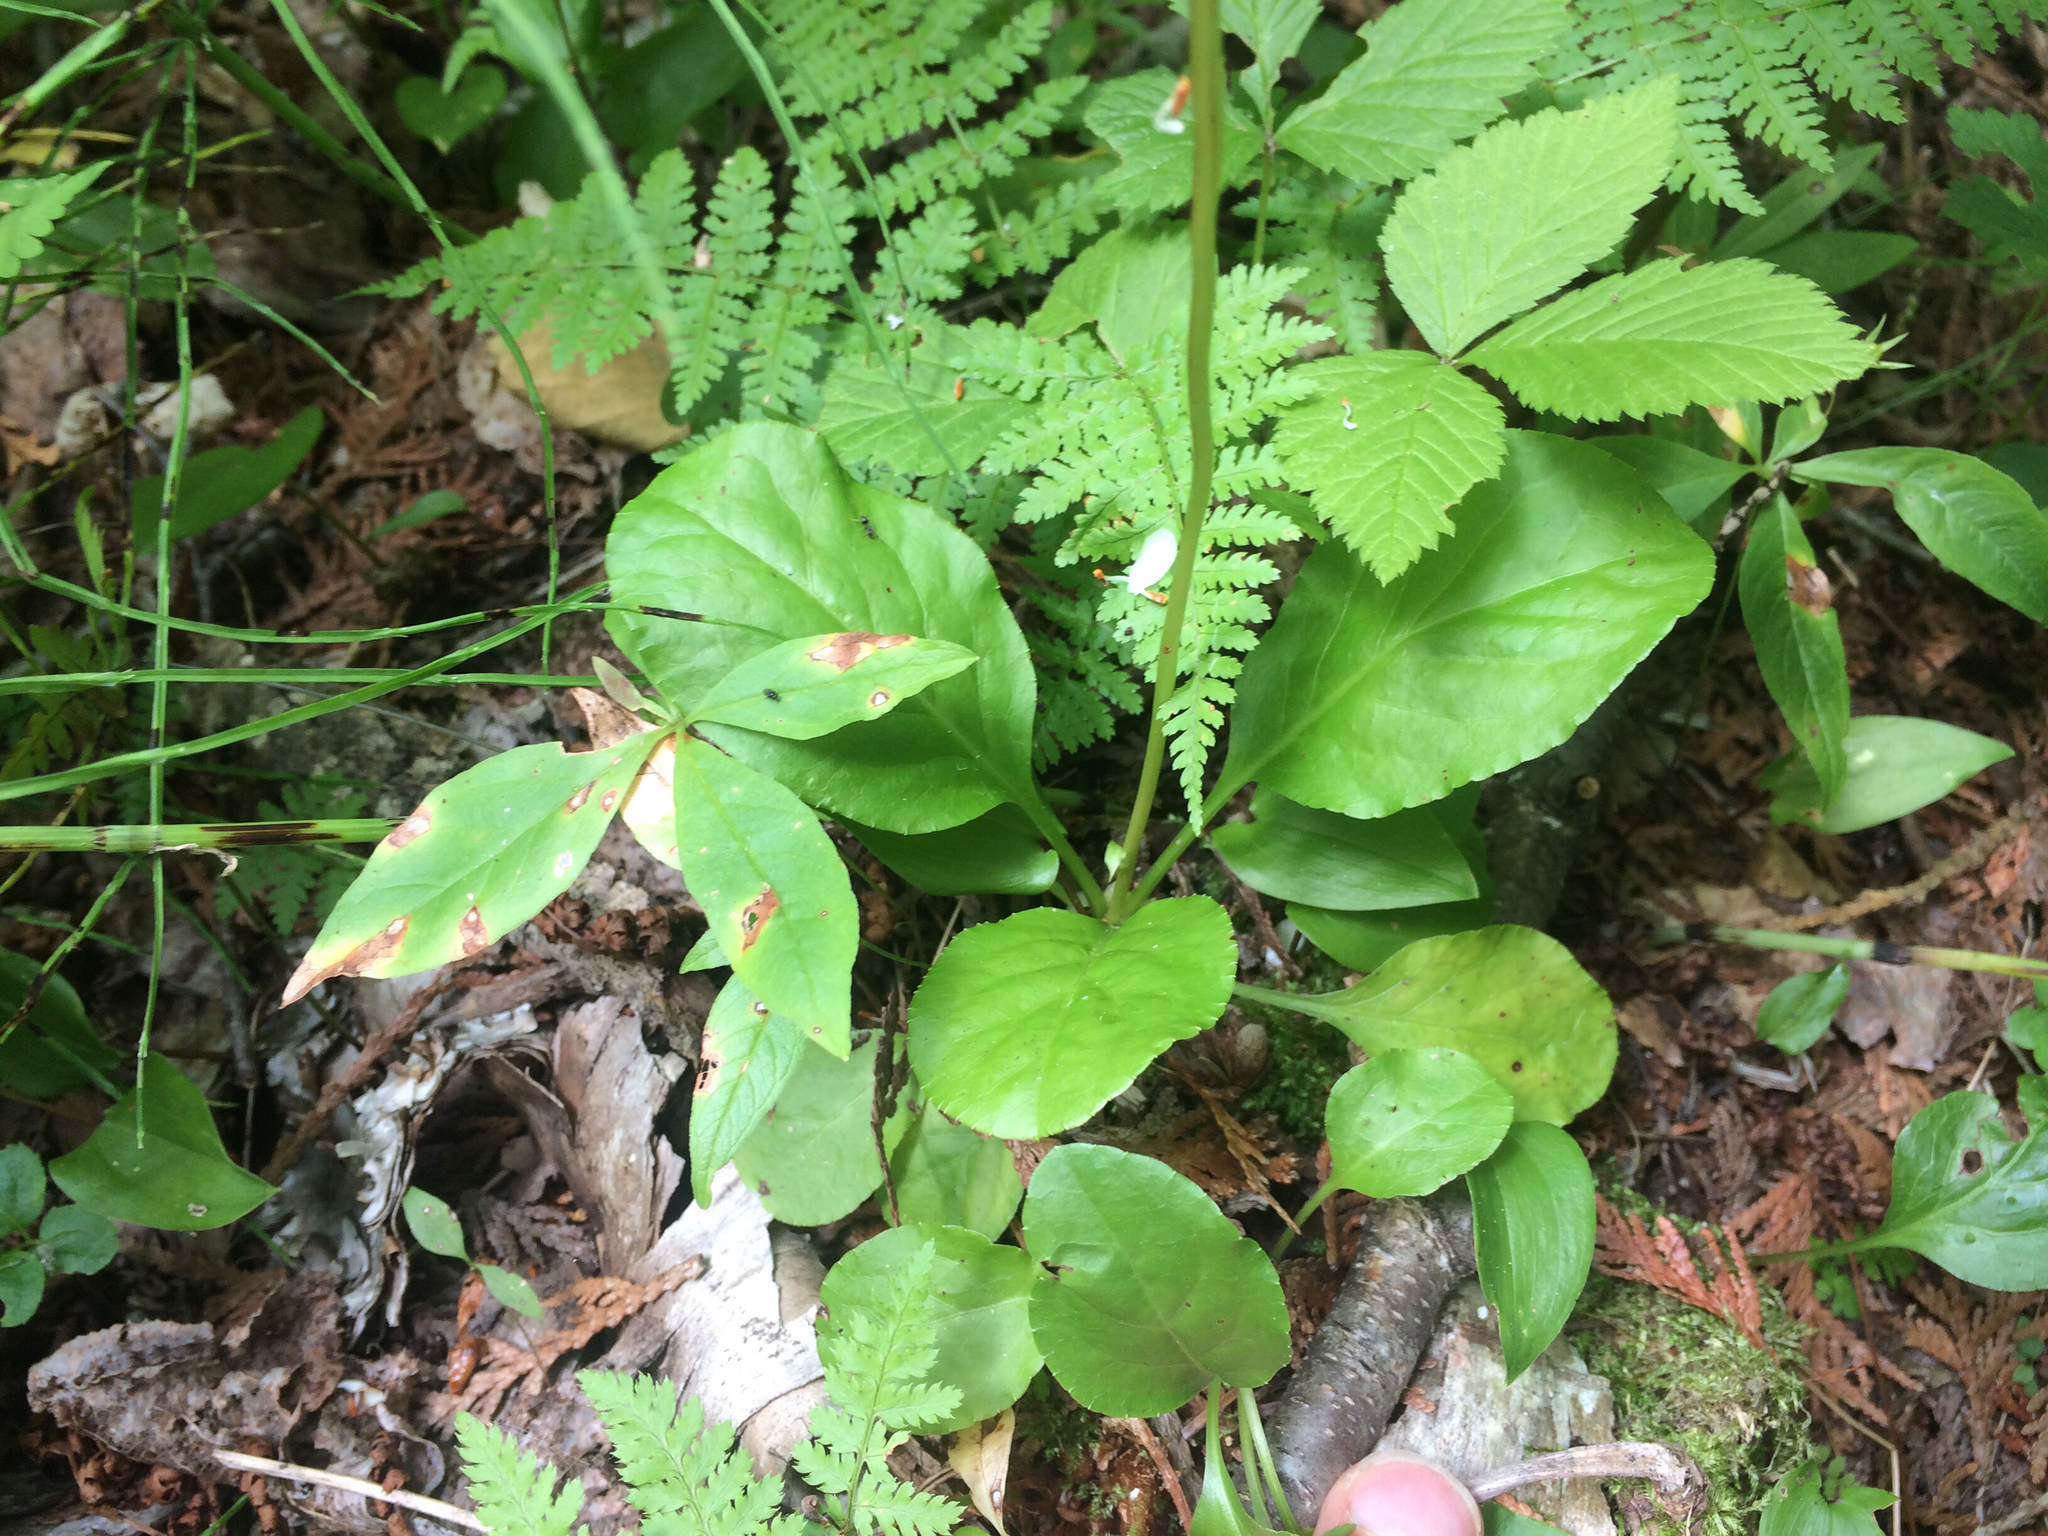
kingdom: Plantae
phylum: Tracheophyta
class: Magnoliopsida
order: Ericales
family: Ericaceae
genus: Pyrola
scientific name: Pyrola elliptica
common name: Shinleaf
